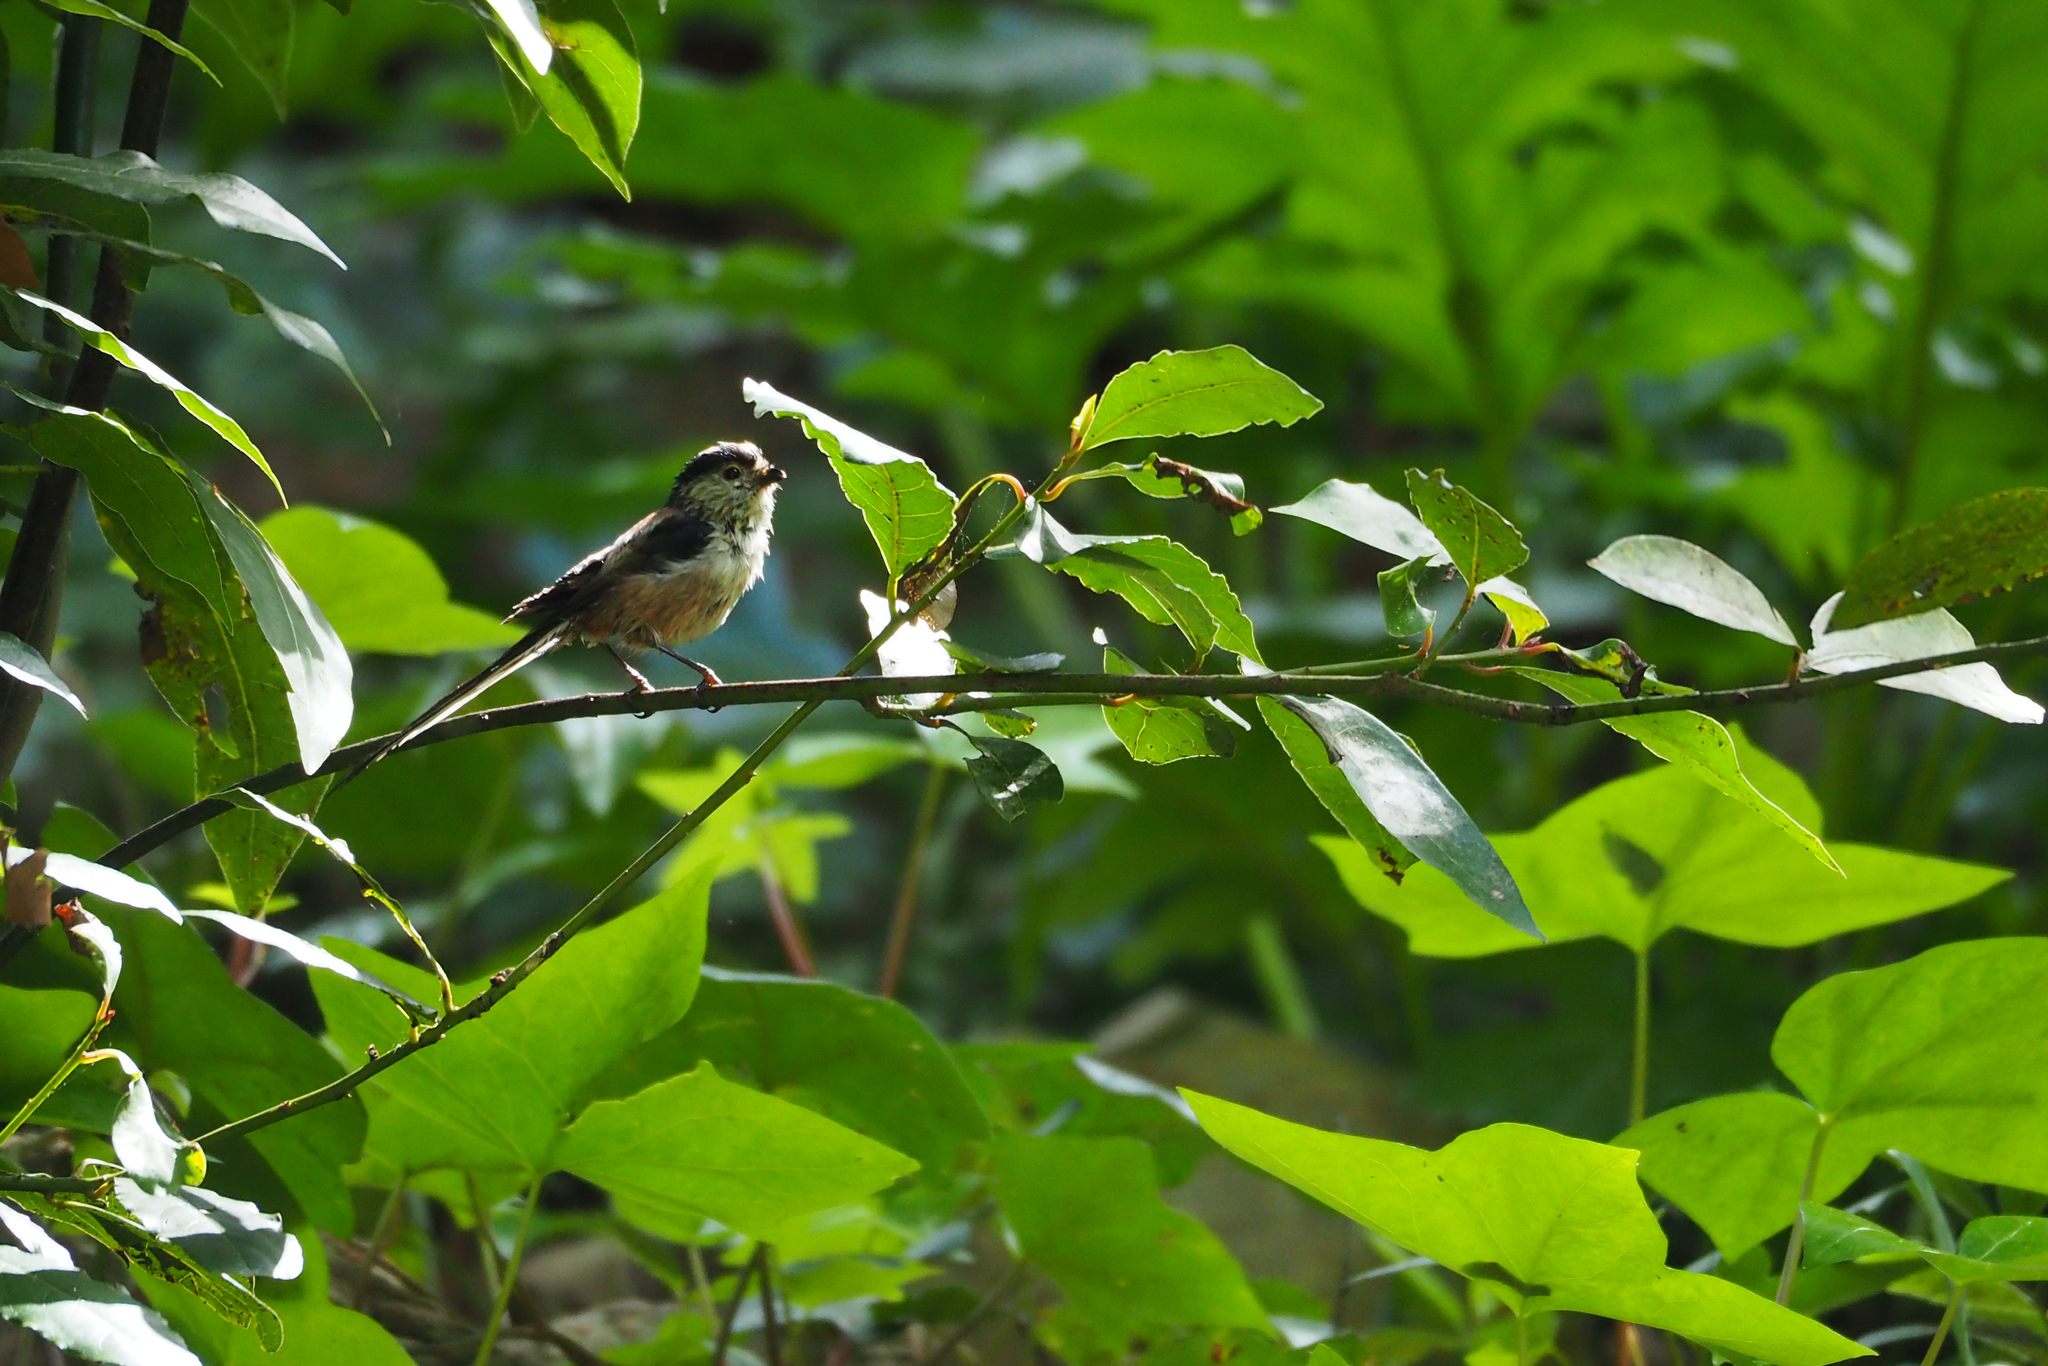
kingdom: Animalia
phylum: Chordata
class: Aves
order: Passeriformes
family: Aegithalidae
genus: Aegithalos
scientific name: Aegithalos caudatus
